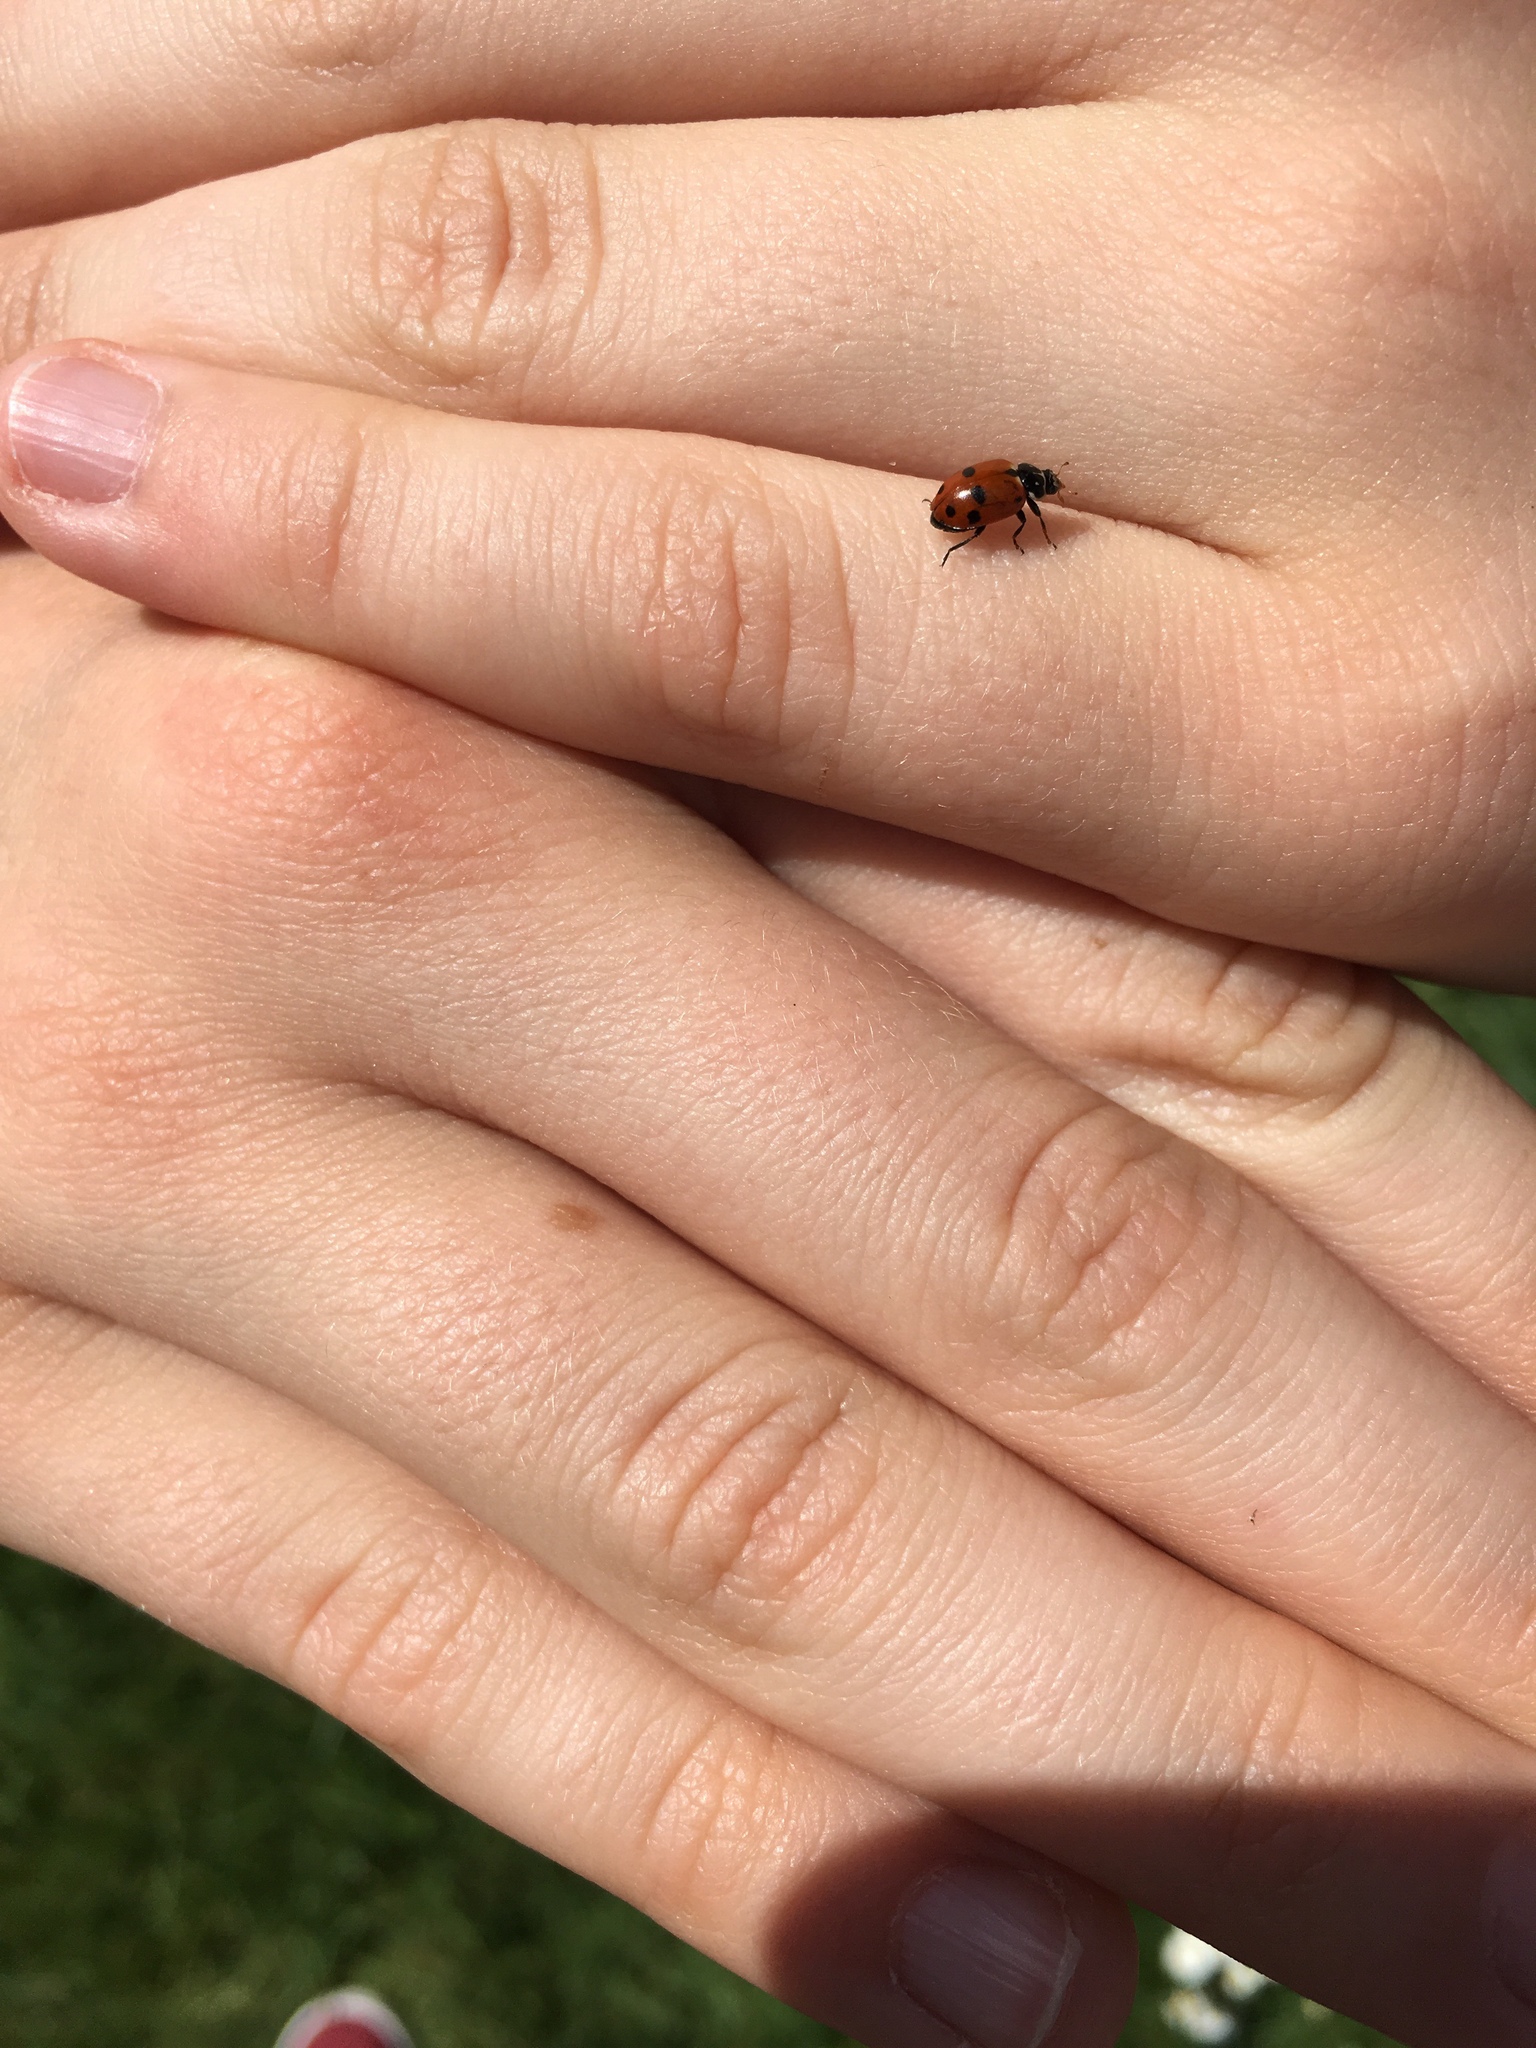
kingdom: Animalia
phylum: Arthropoda
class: Insecta
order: Coleoptera
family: Coccinellidae
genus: Hippodamia
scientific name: Hippodamia variegata
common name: Ladybird beetle
